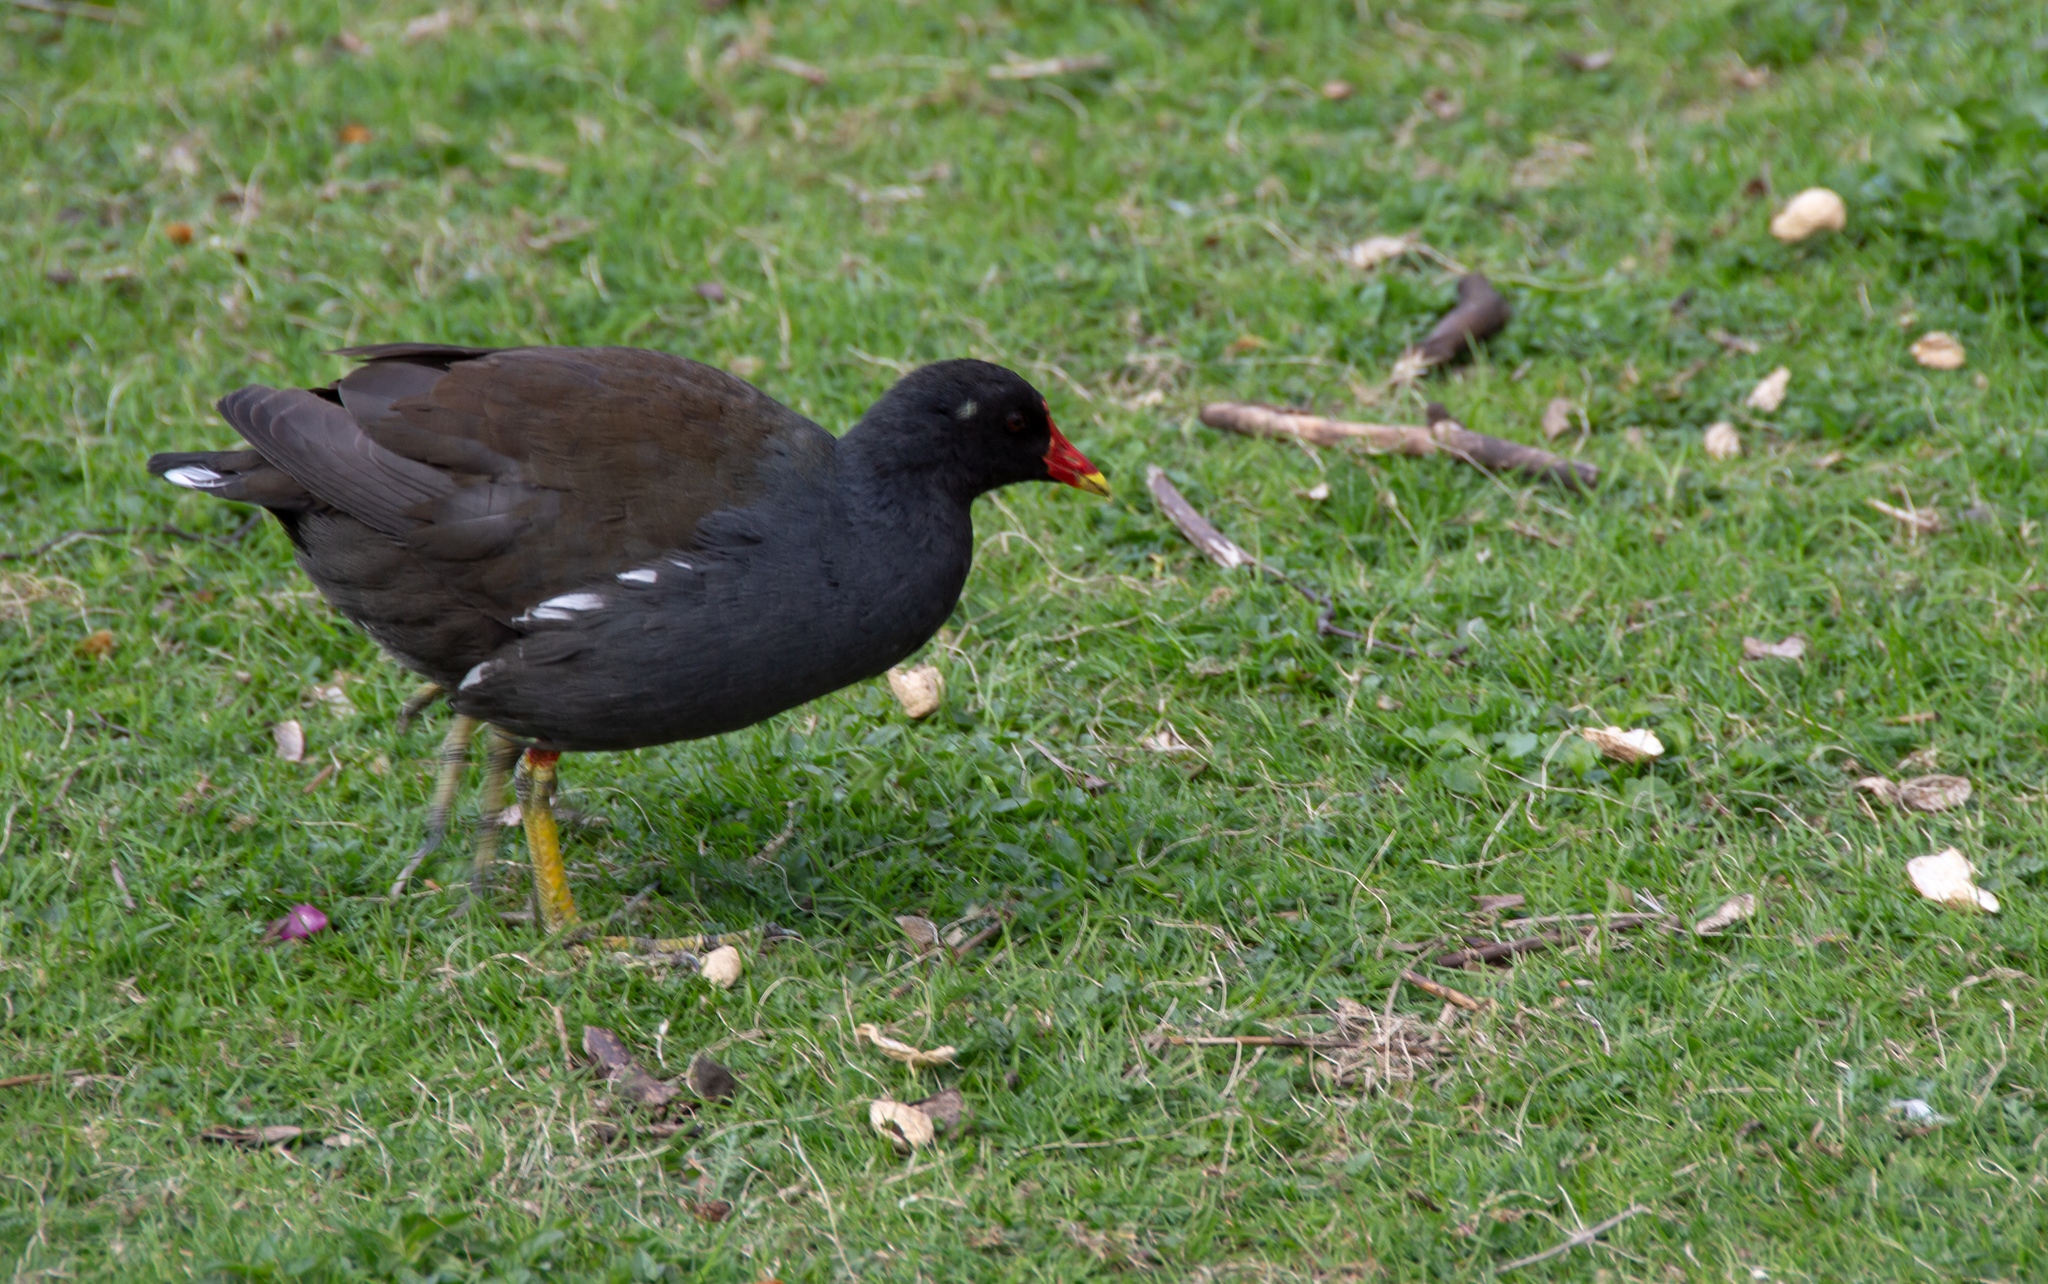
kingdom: Animalia
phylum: Chordata
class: Aves
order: Gruiformes
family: Rallidae
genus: Gallinula
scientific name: Gallinula chloropus
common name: Common moorhen
